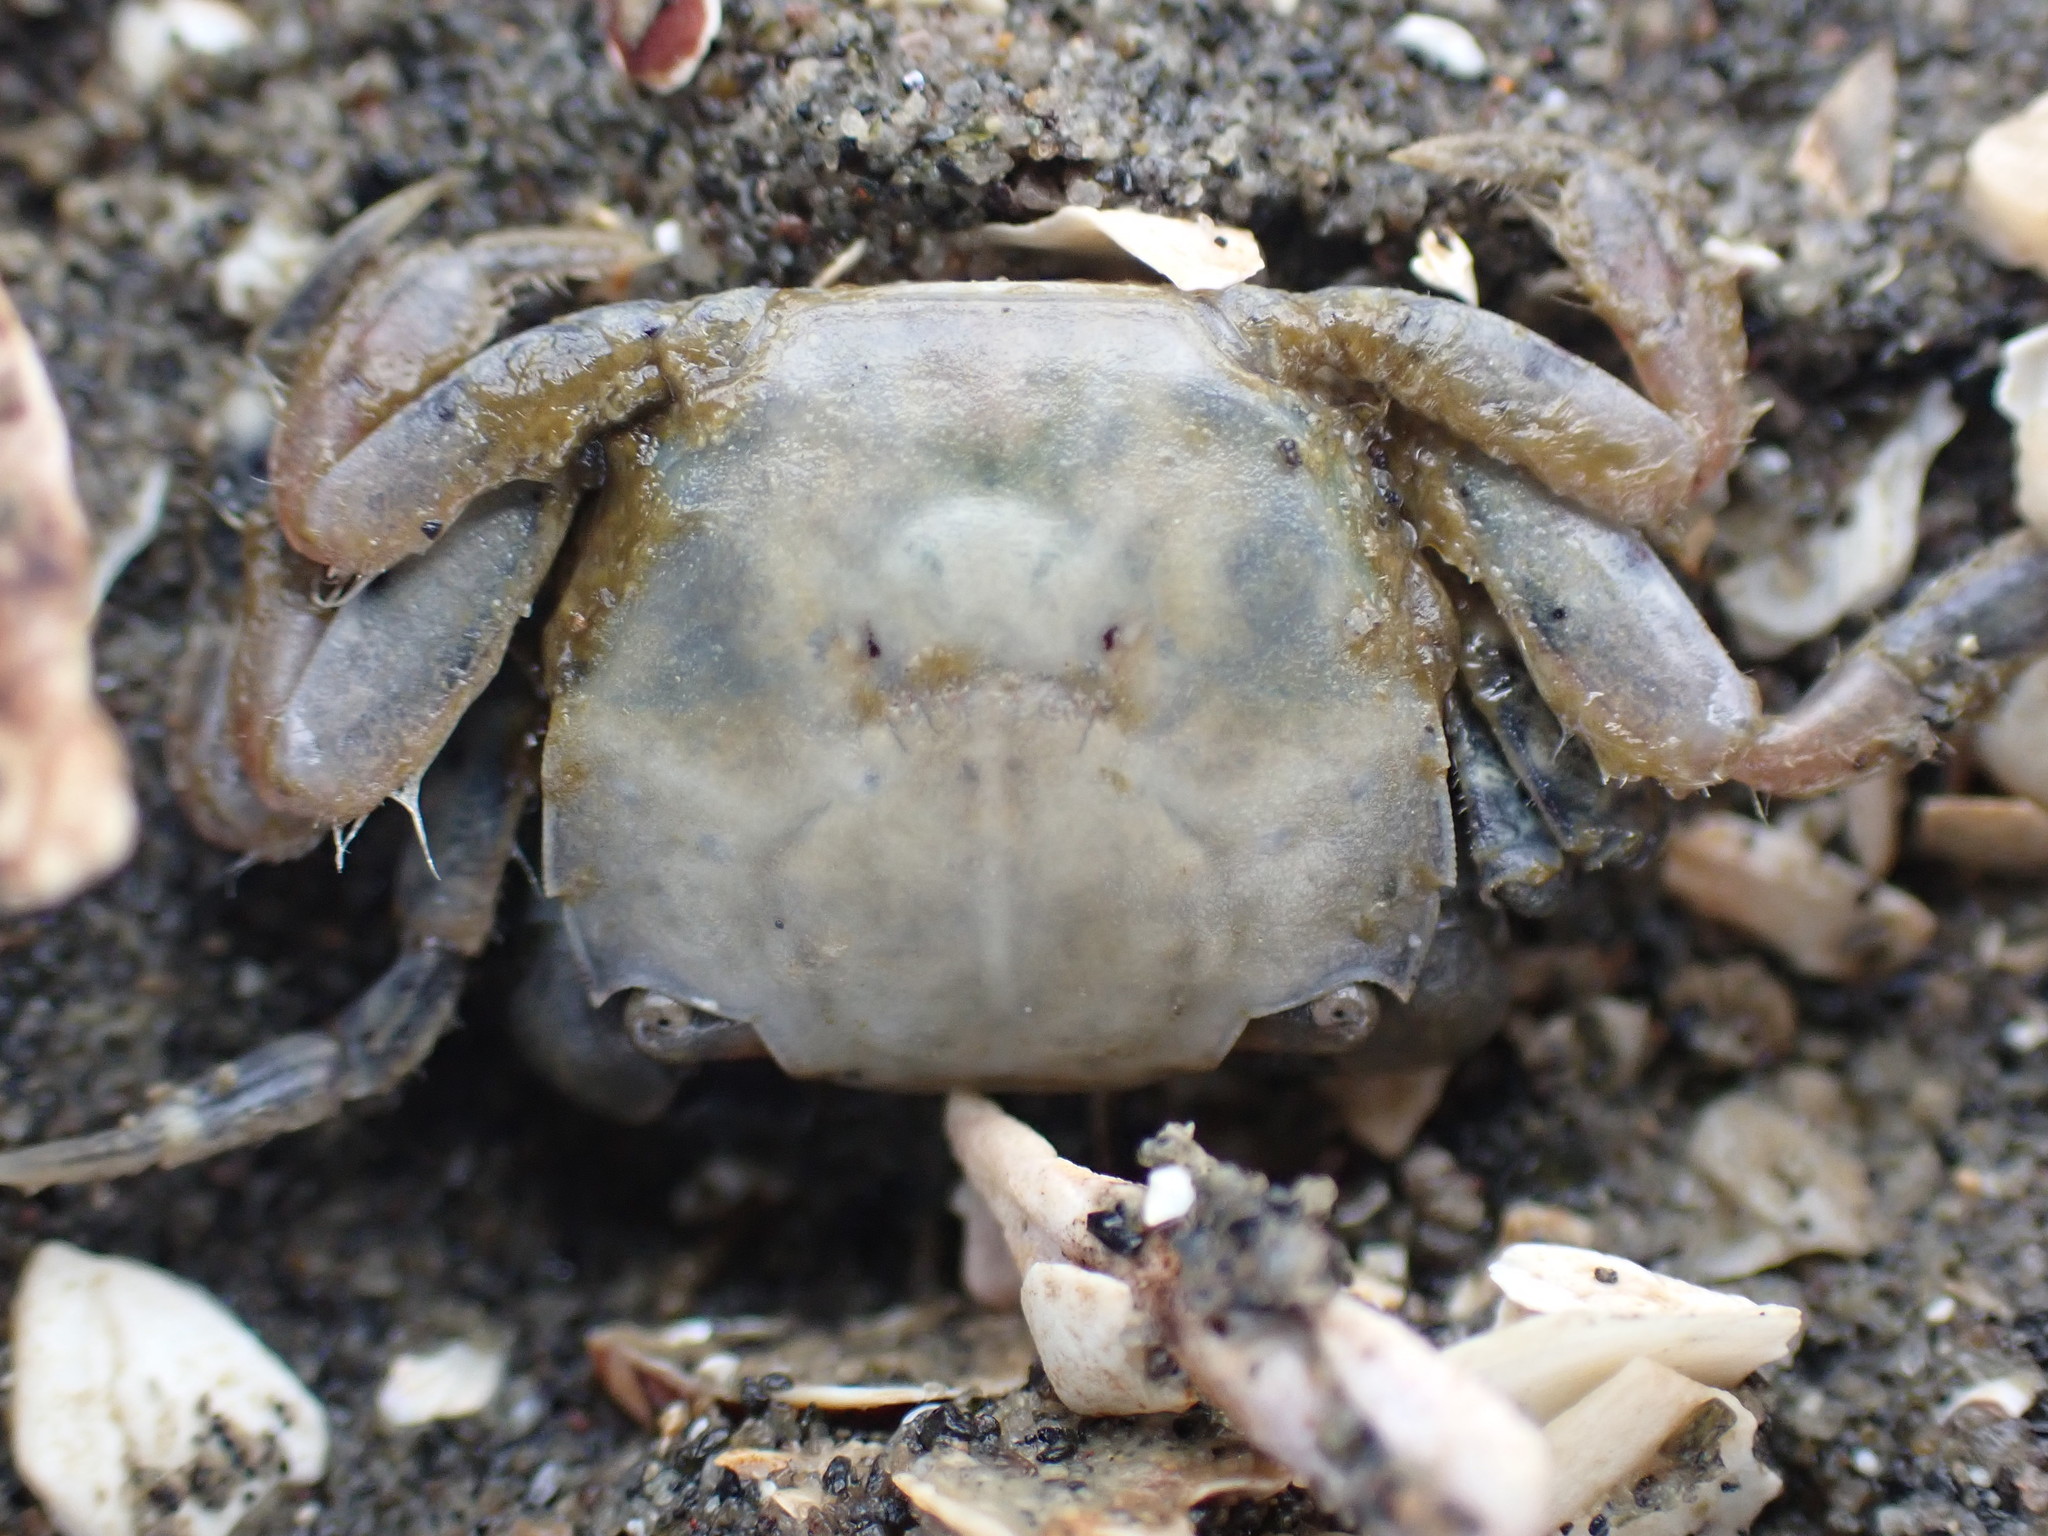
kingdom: Animalia
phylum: Arthropoda
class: Malacostraca
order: Decapoda
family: Varunidae
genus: Hemigrapsus
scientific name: Hemigrapsus crenulatus
